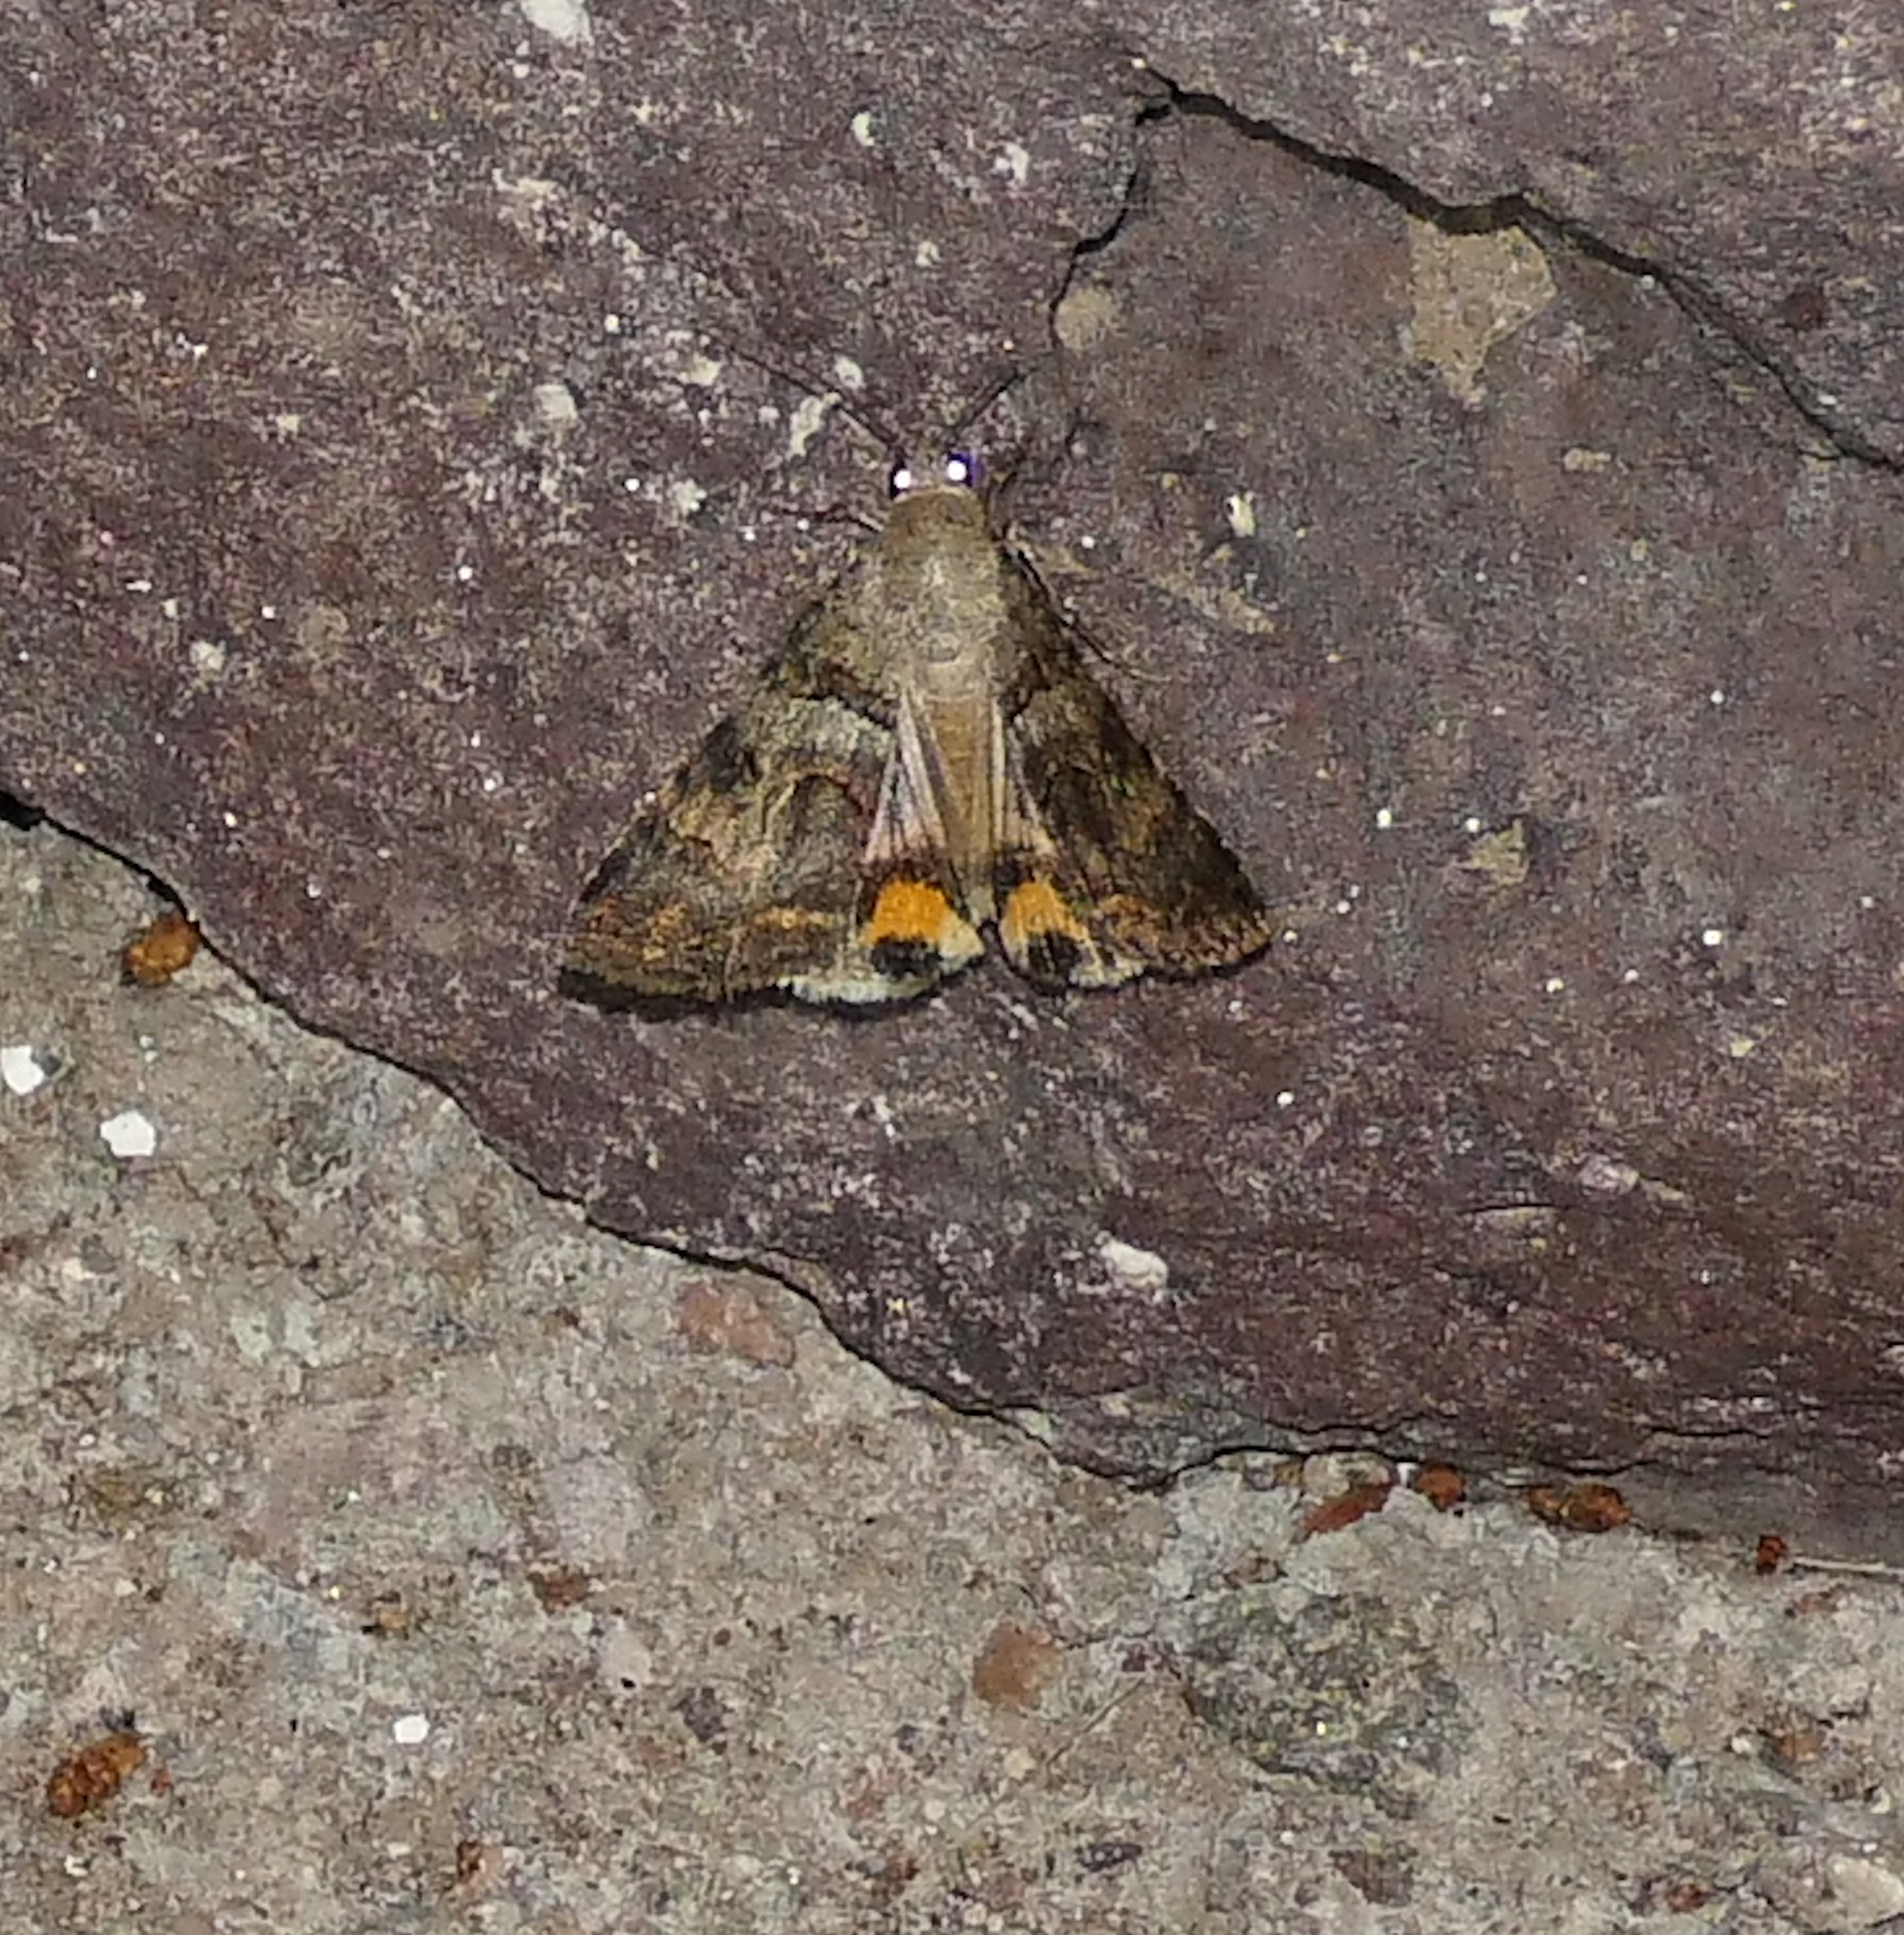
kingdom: Animalia
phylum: Arthropoda
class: Insecta
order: Lepidoptera
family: Erebidae
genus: Bulia
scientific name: Bulia deducta
